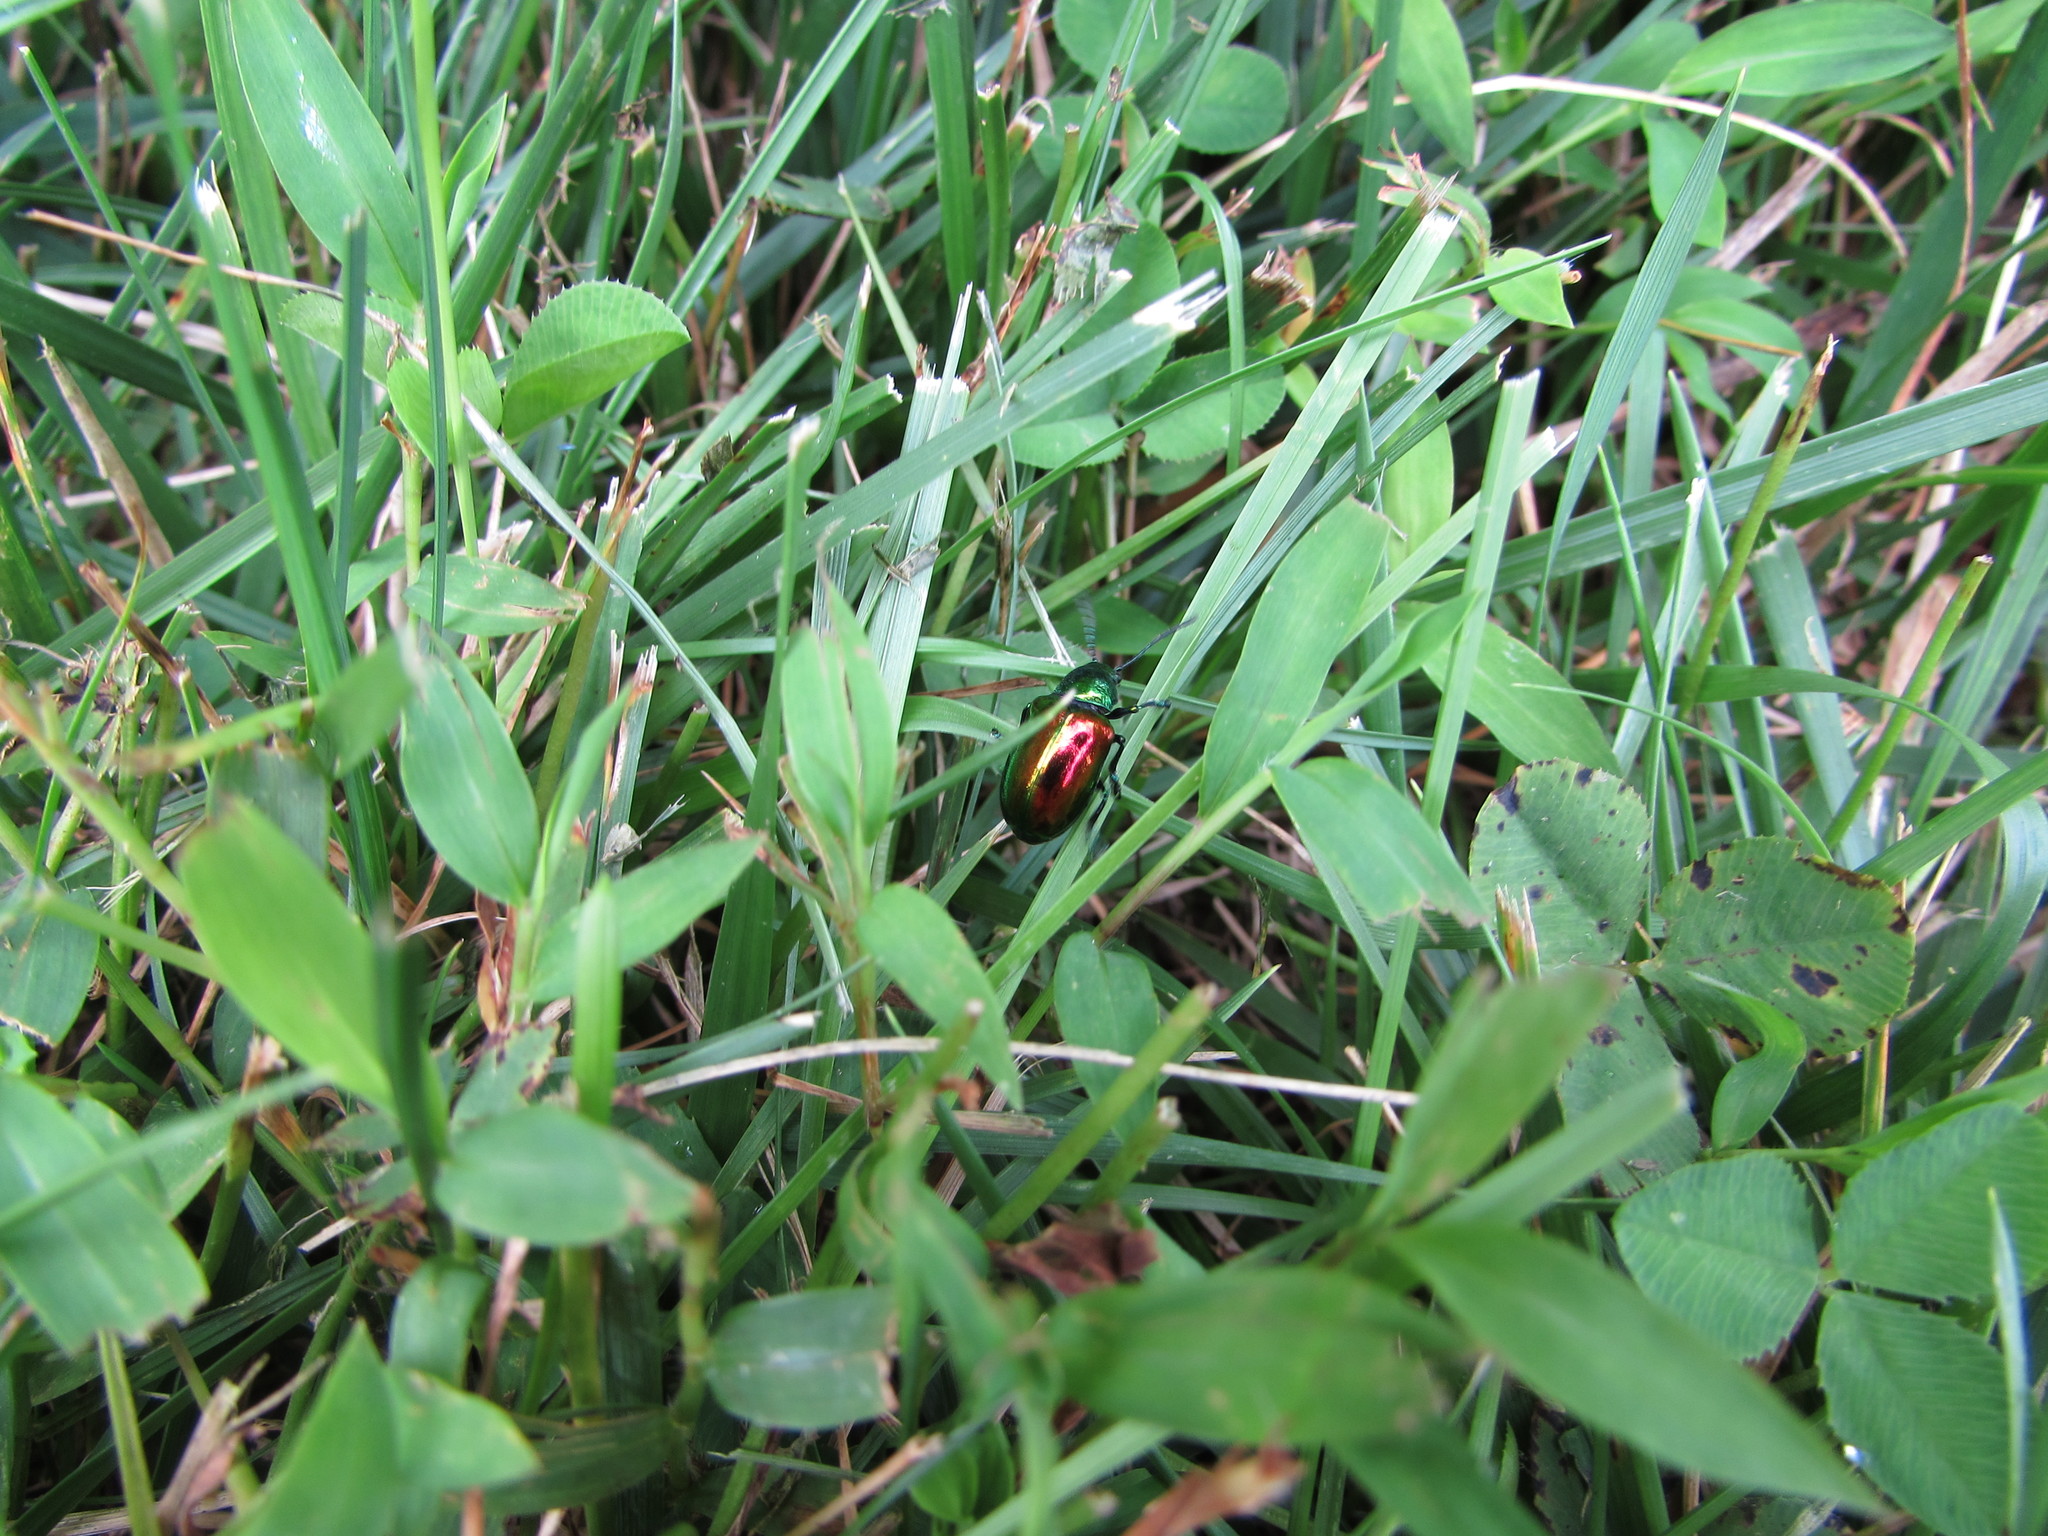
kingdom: Animalia
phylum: Arthropoda
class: Insecta
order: Coleoptera
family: Chrysomelidae
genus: Chrysochus
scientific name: Chrysochus auratus
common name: Dogbane leaf beetle
